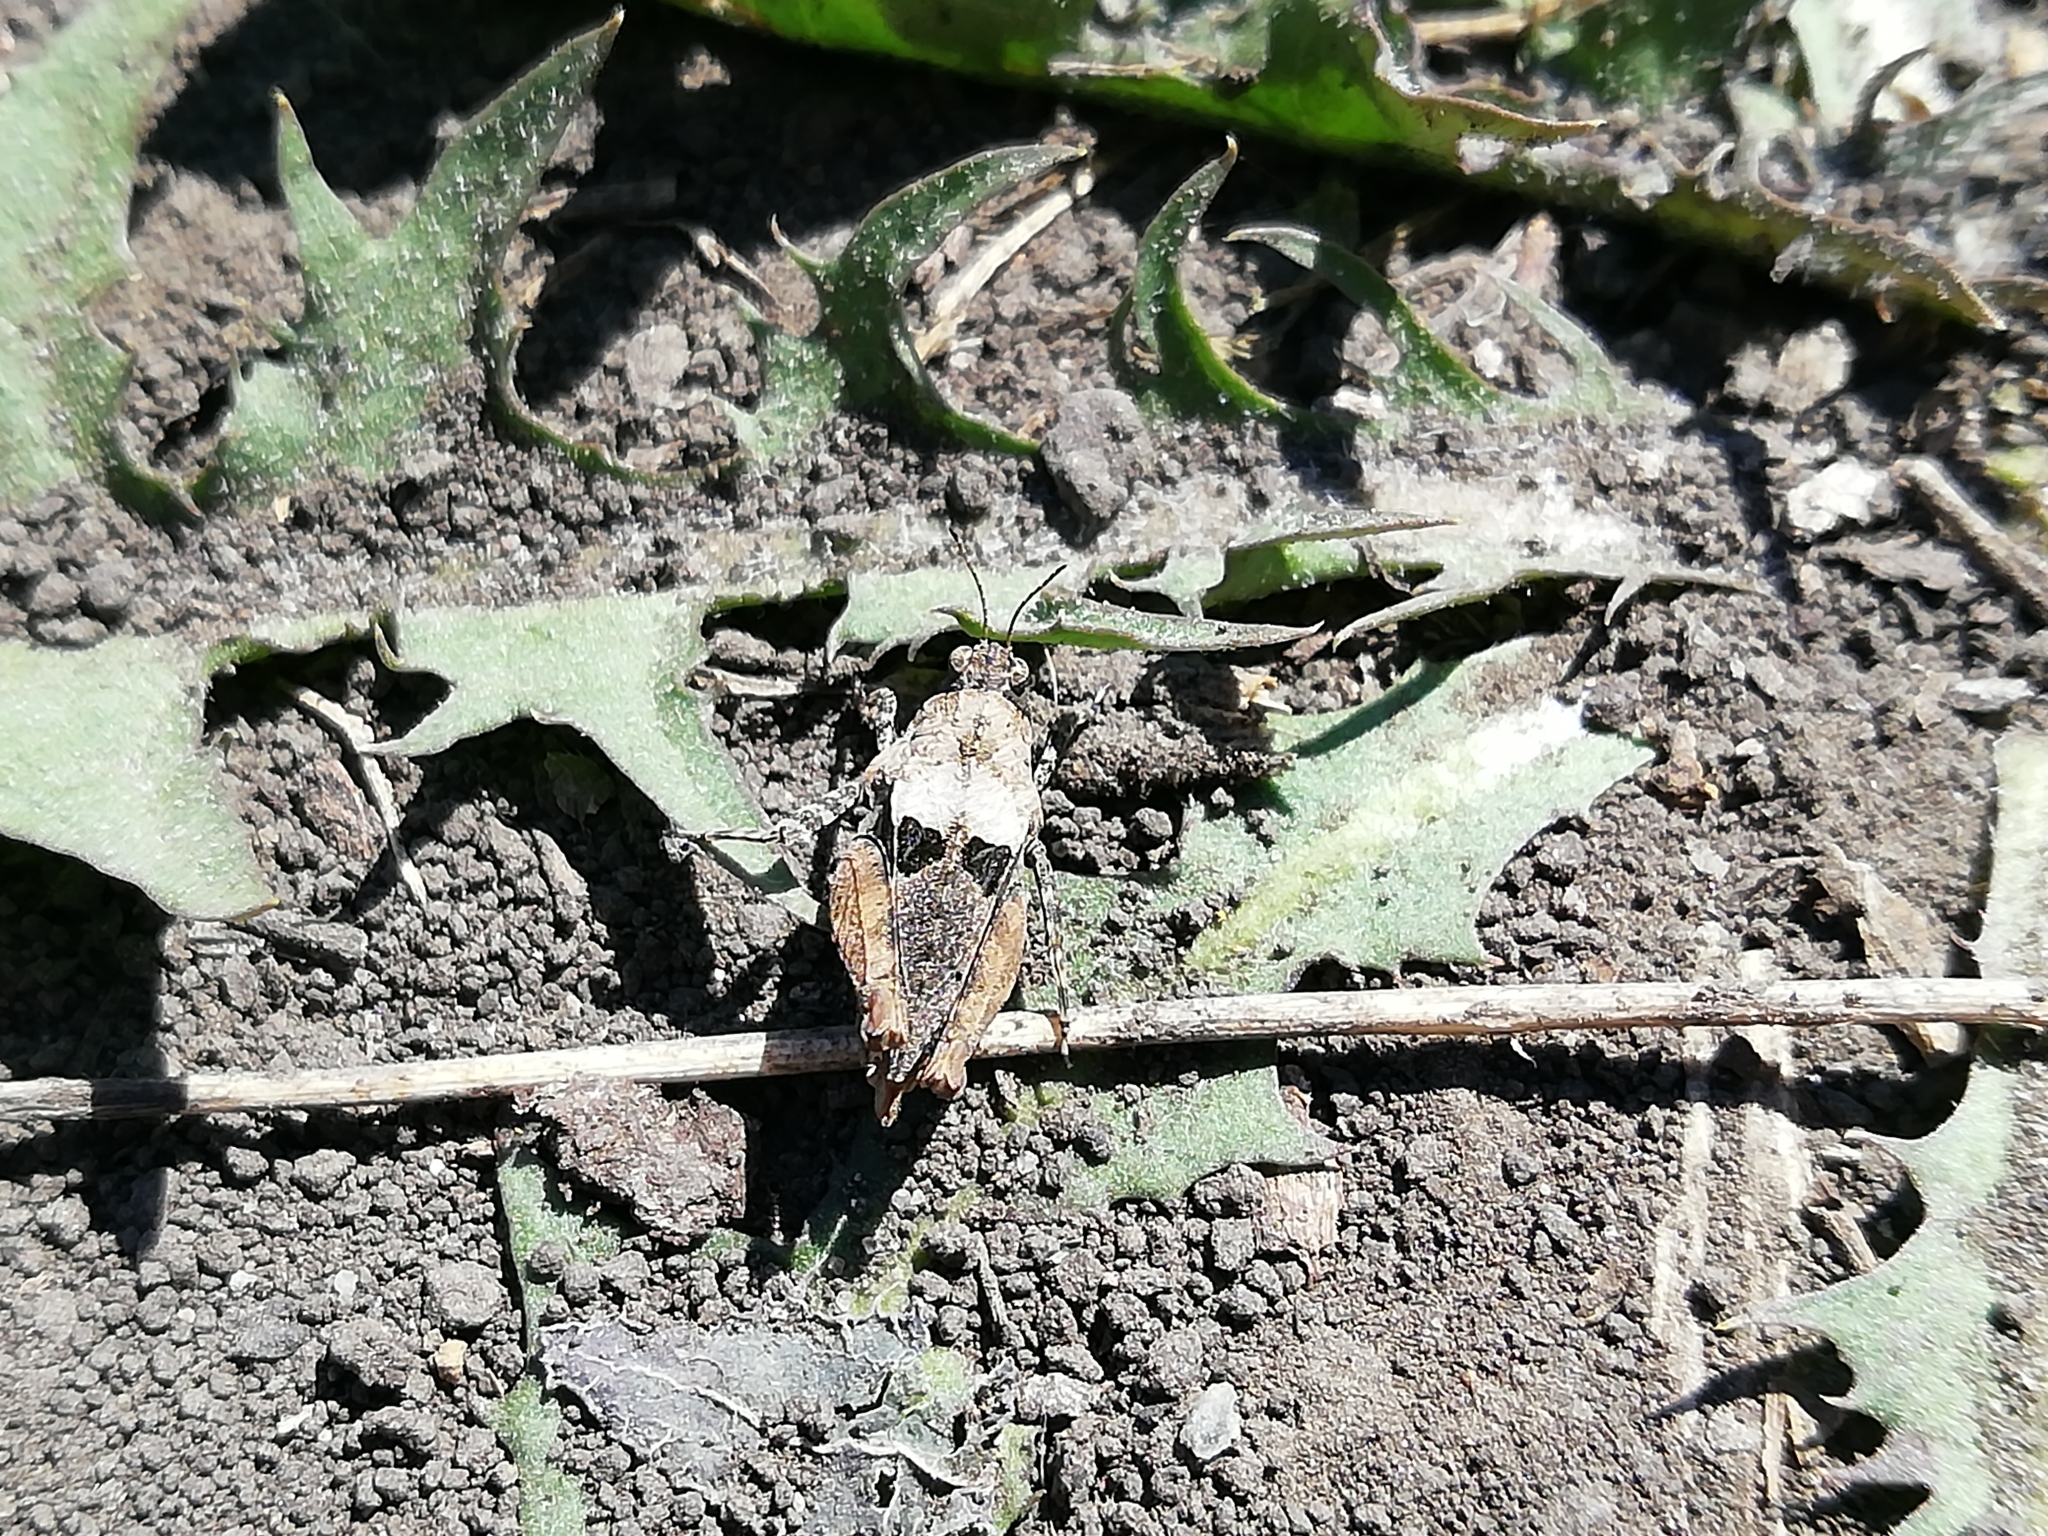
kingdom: Animalia
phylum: Arthropoda
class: Insecta
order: Orthoptera
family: Tetrigidae
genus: Tetrix
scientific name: Tetrix tenuicornis
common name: Long-horned groundhopper
